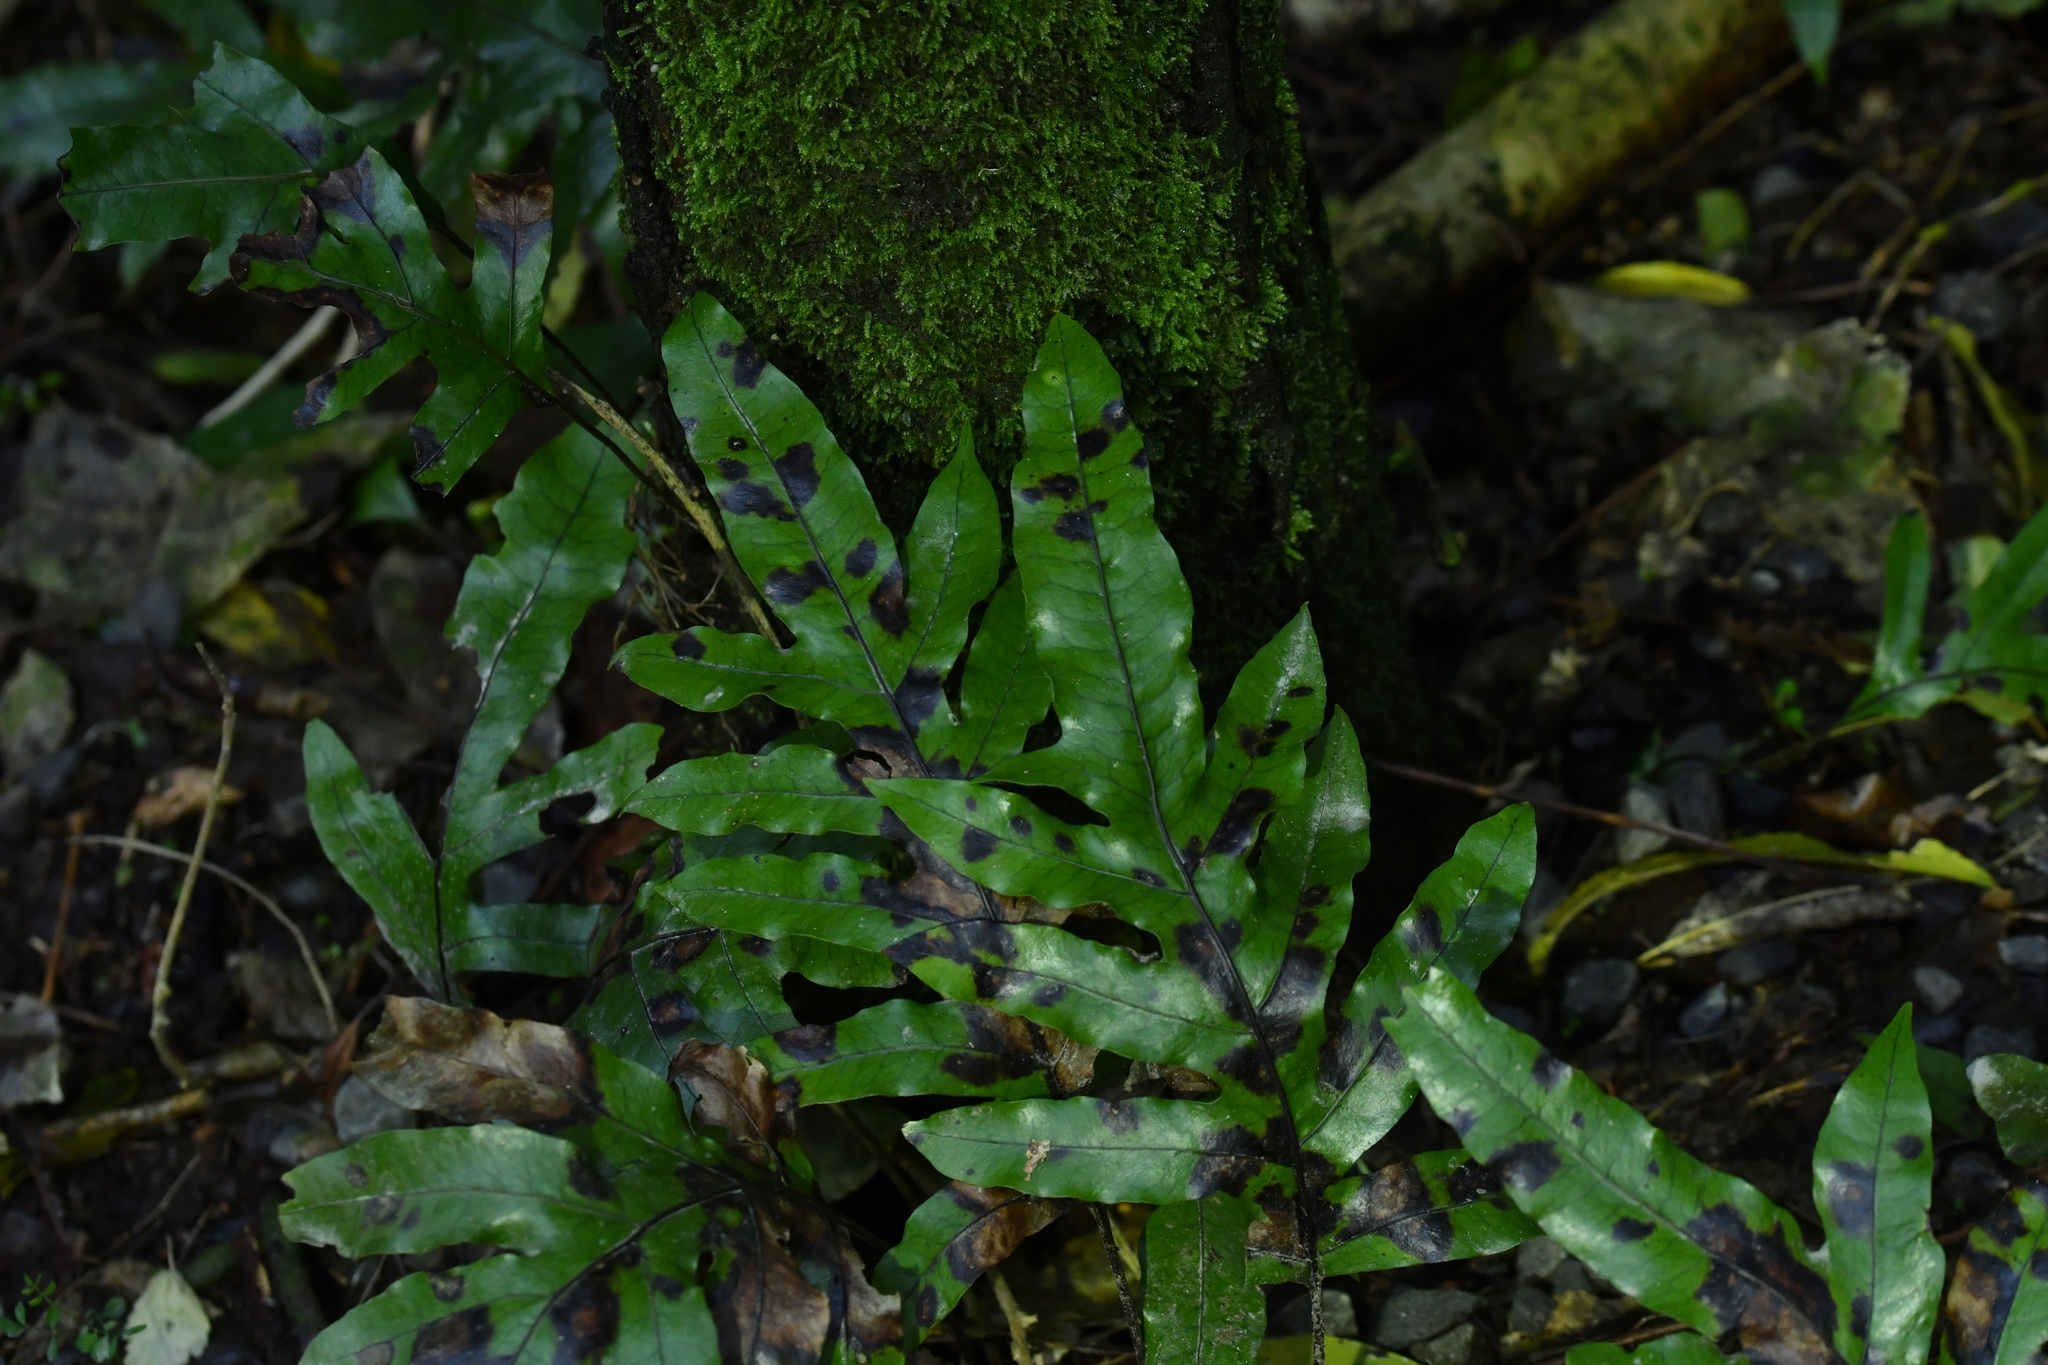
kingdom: Plantae
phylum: Tracheophyta
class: Polypodiopsida
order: Polypodiales
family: Polypodiaceae
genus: Lecanopteris
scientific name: Lecanopteris pustulata
